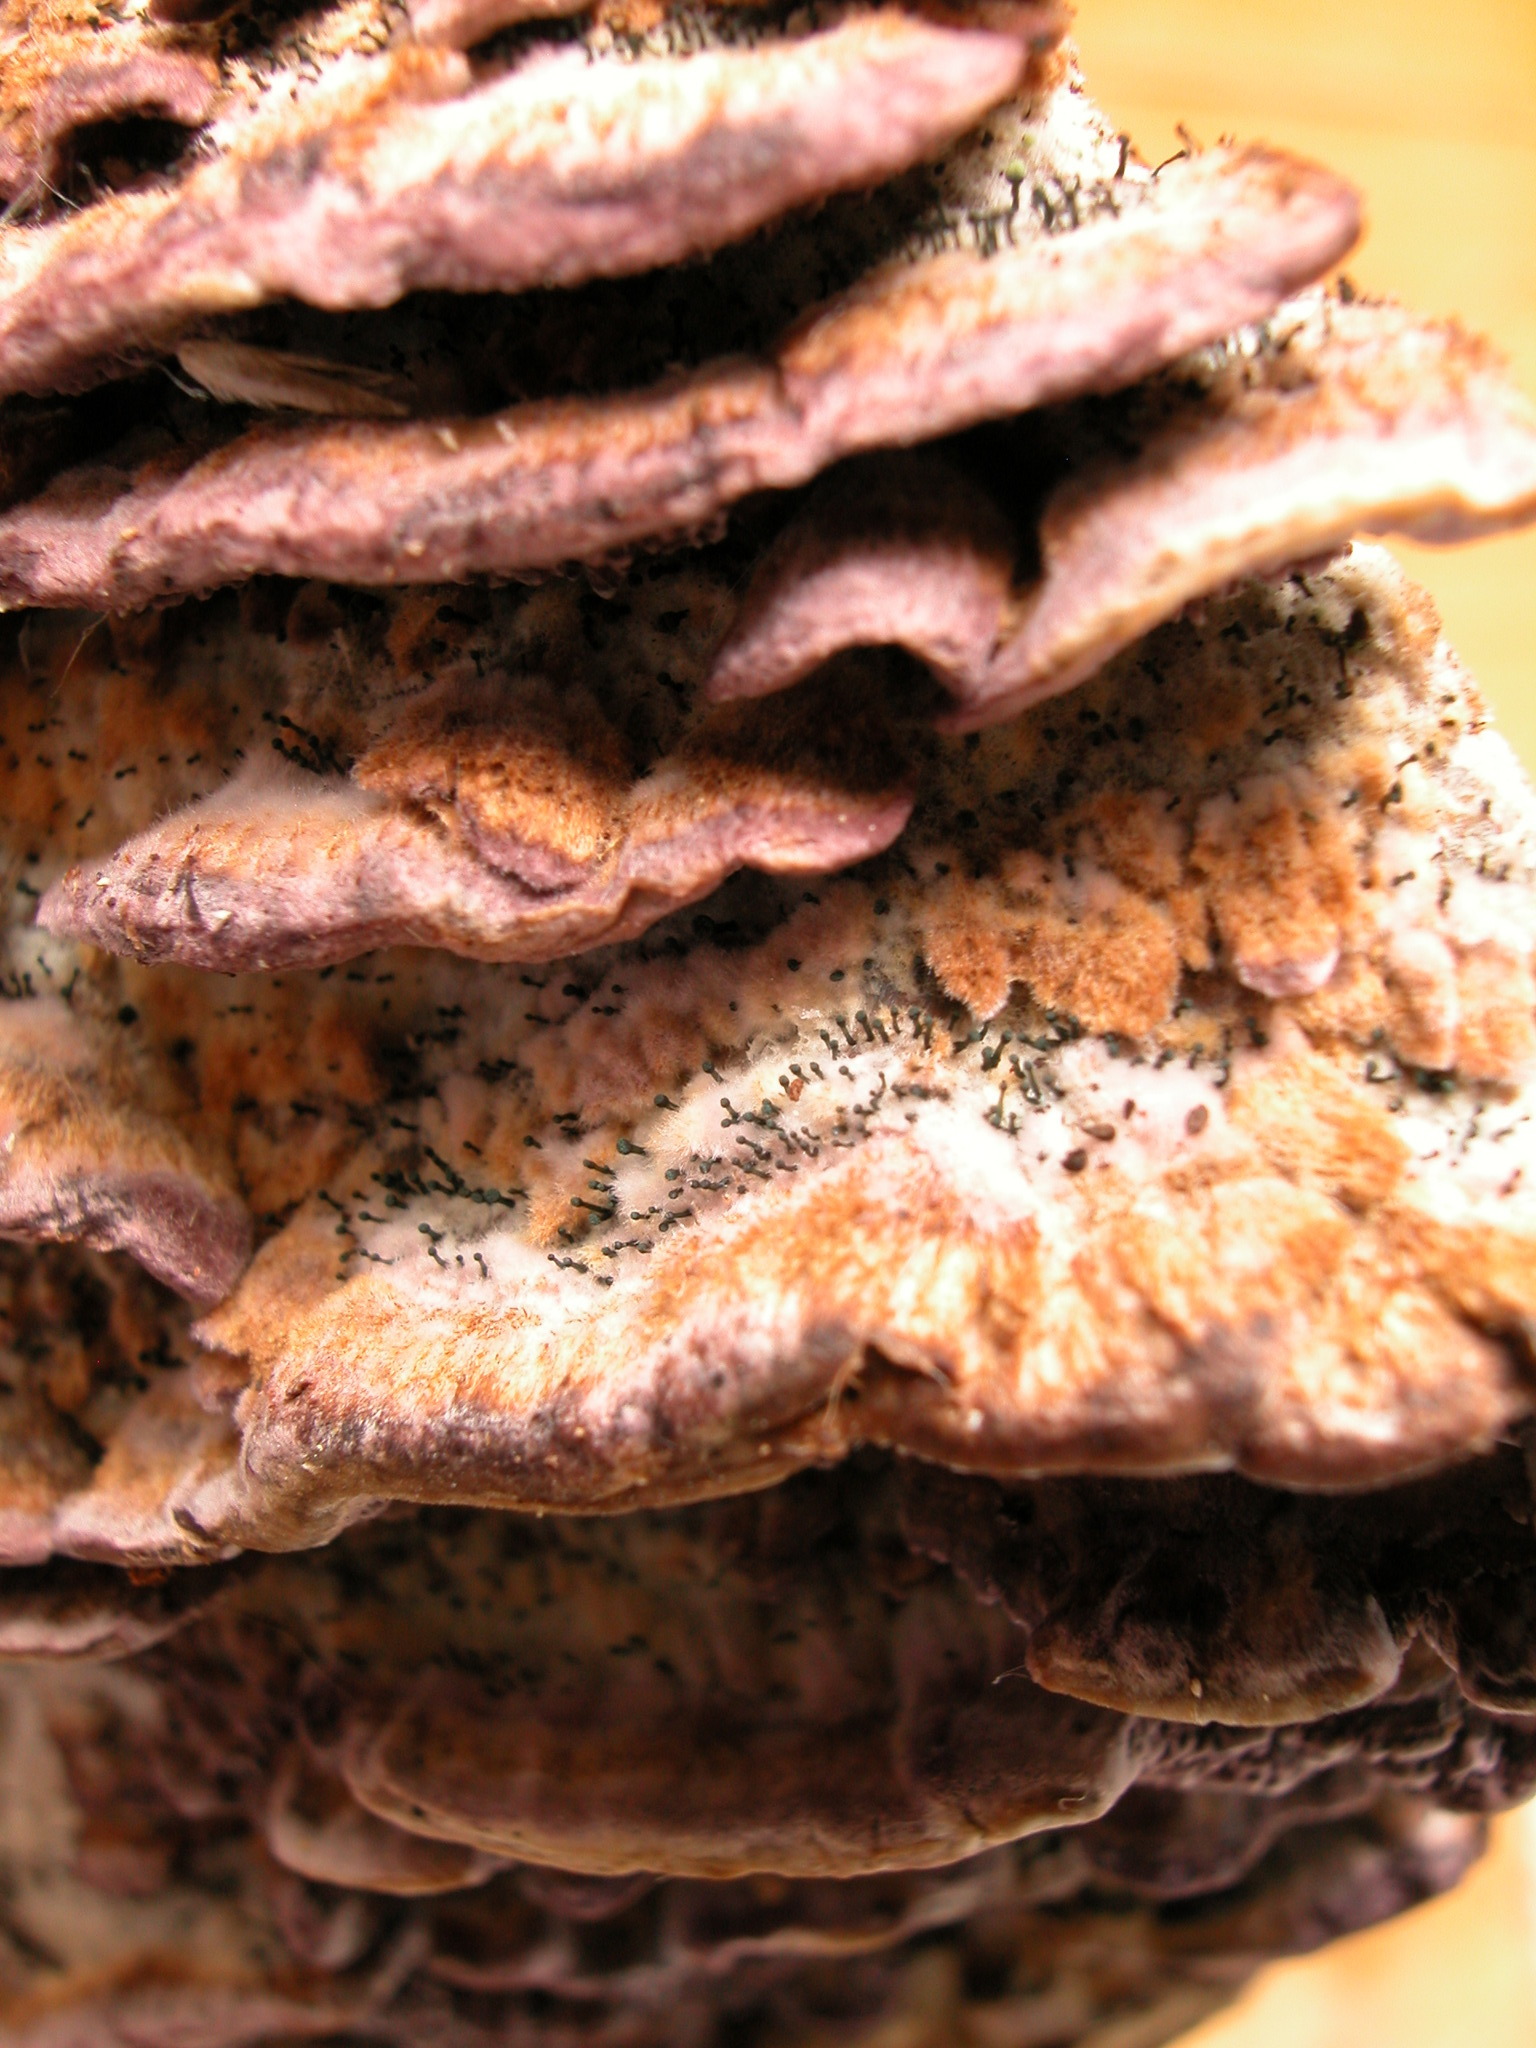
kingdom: Fungi
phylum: Basidiomycota
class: Agaricomycetes
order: Hymenochaetales
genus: Trichaptum
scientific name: Trichaptum biforme
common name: Violet-toothed polypore
